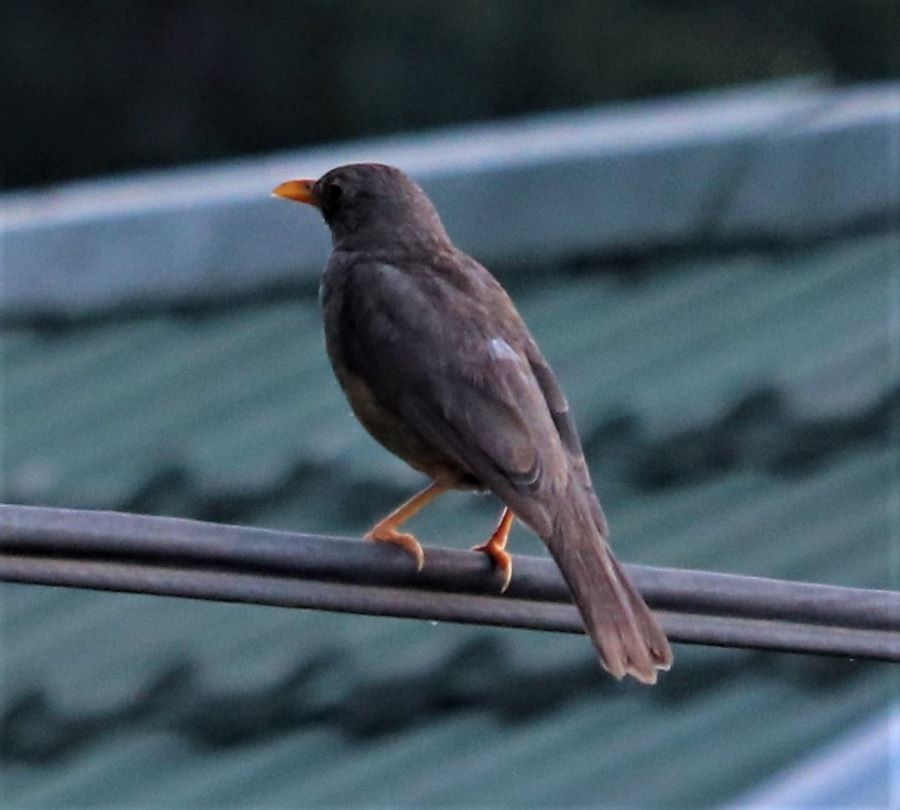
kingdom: Animalia
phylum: Chordata
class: Aves
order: Passeriformes
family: Turdidae
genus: Turdus
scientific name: Turdus smithi
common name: Karoo thrush
